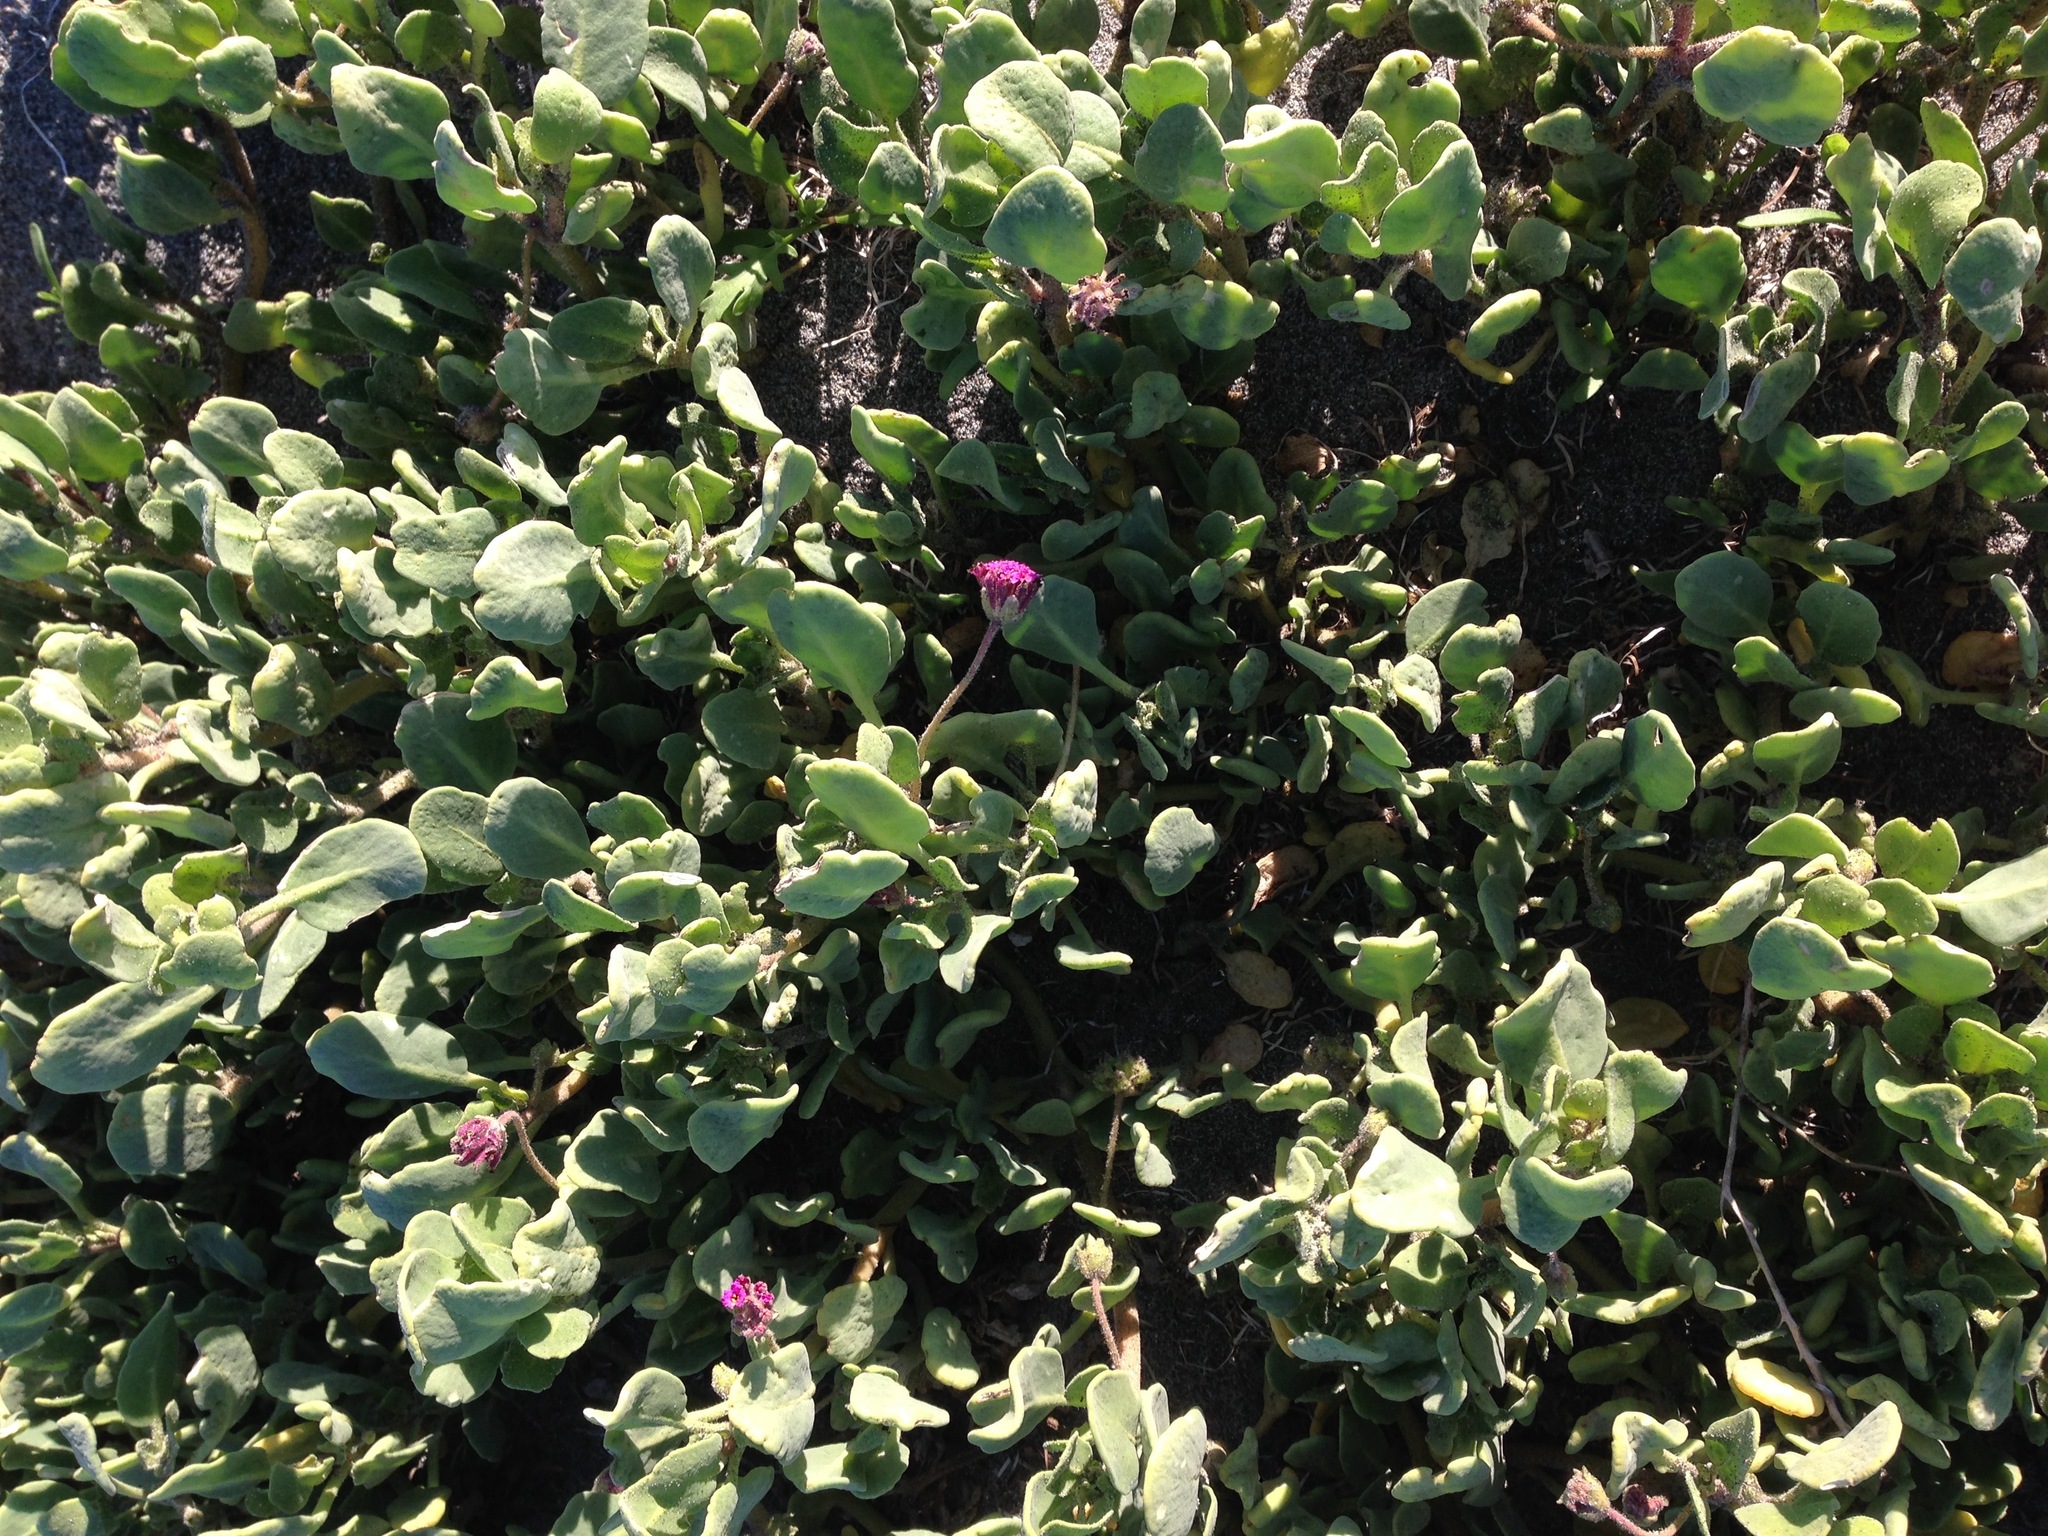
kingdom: Plantae
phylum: Tracheophyta
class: Magnoliopsida
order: Caryophyllales
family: Nyctaginaceae
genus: Abronia
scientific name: Abronia maritima
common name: Red sand-verbena
